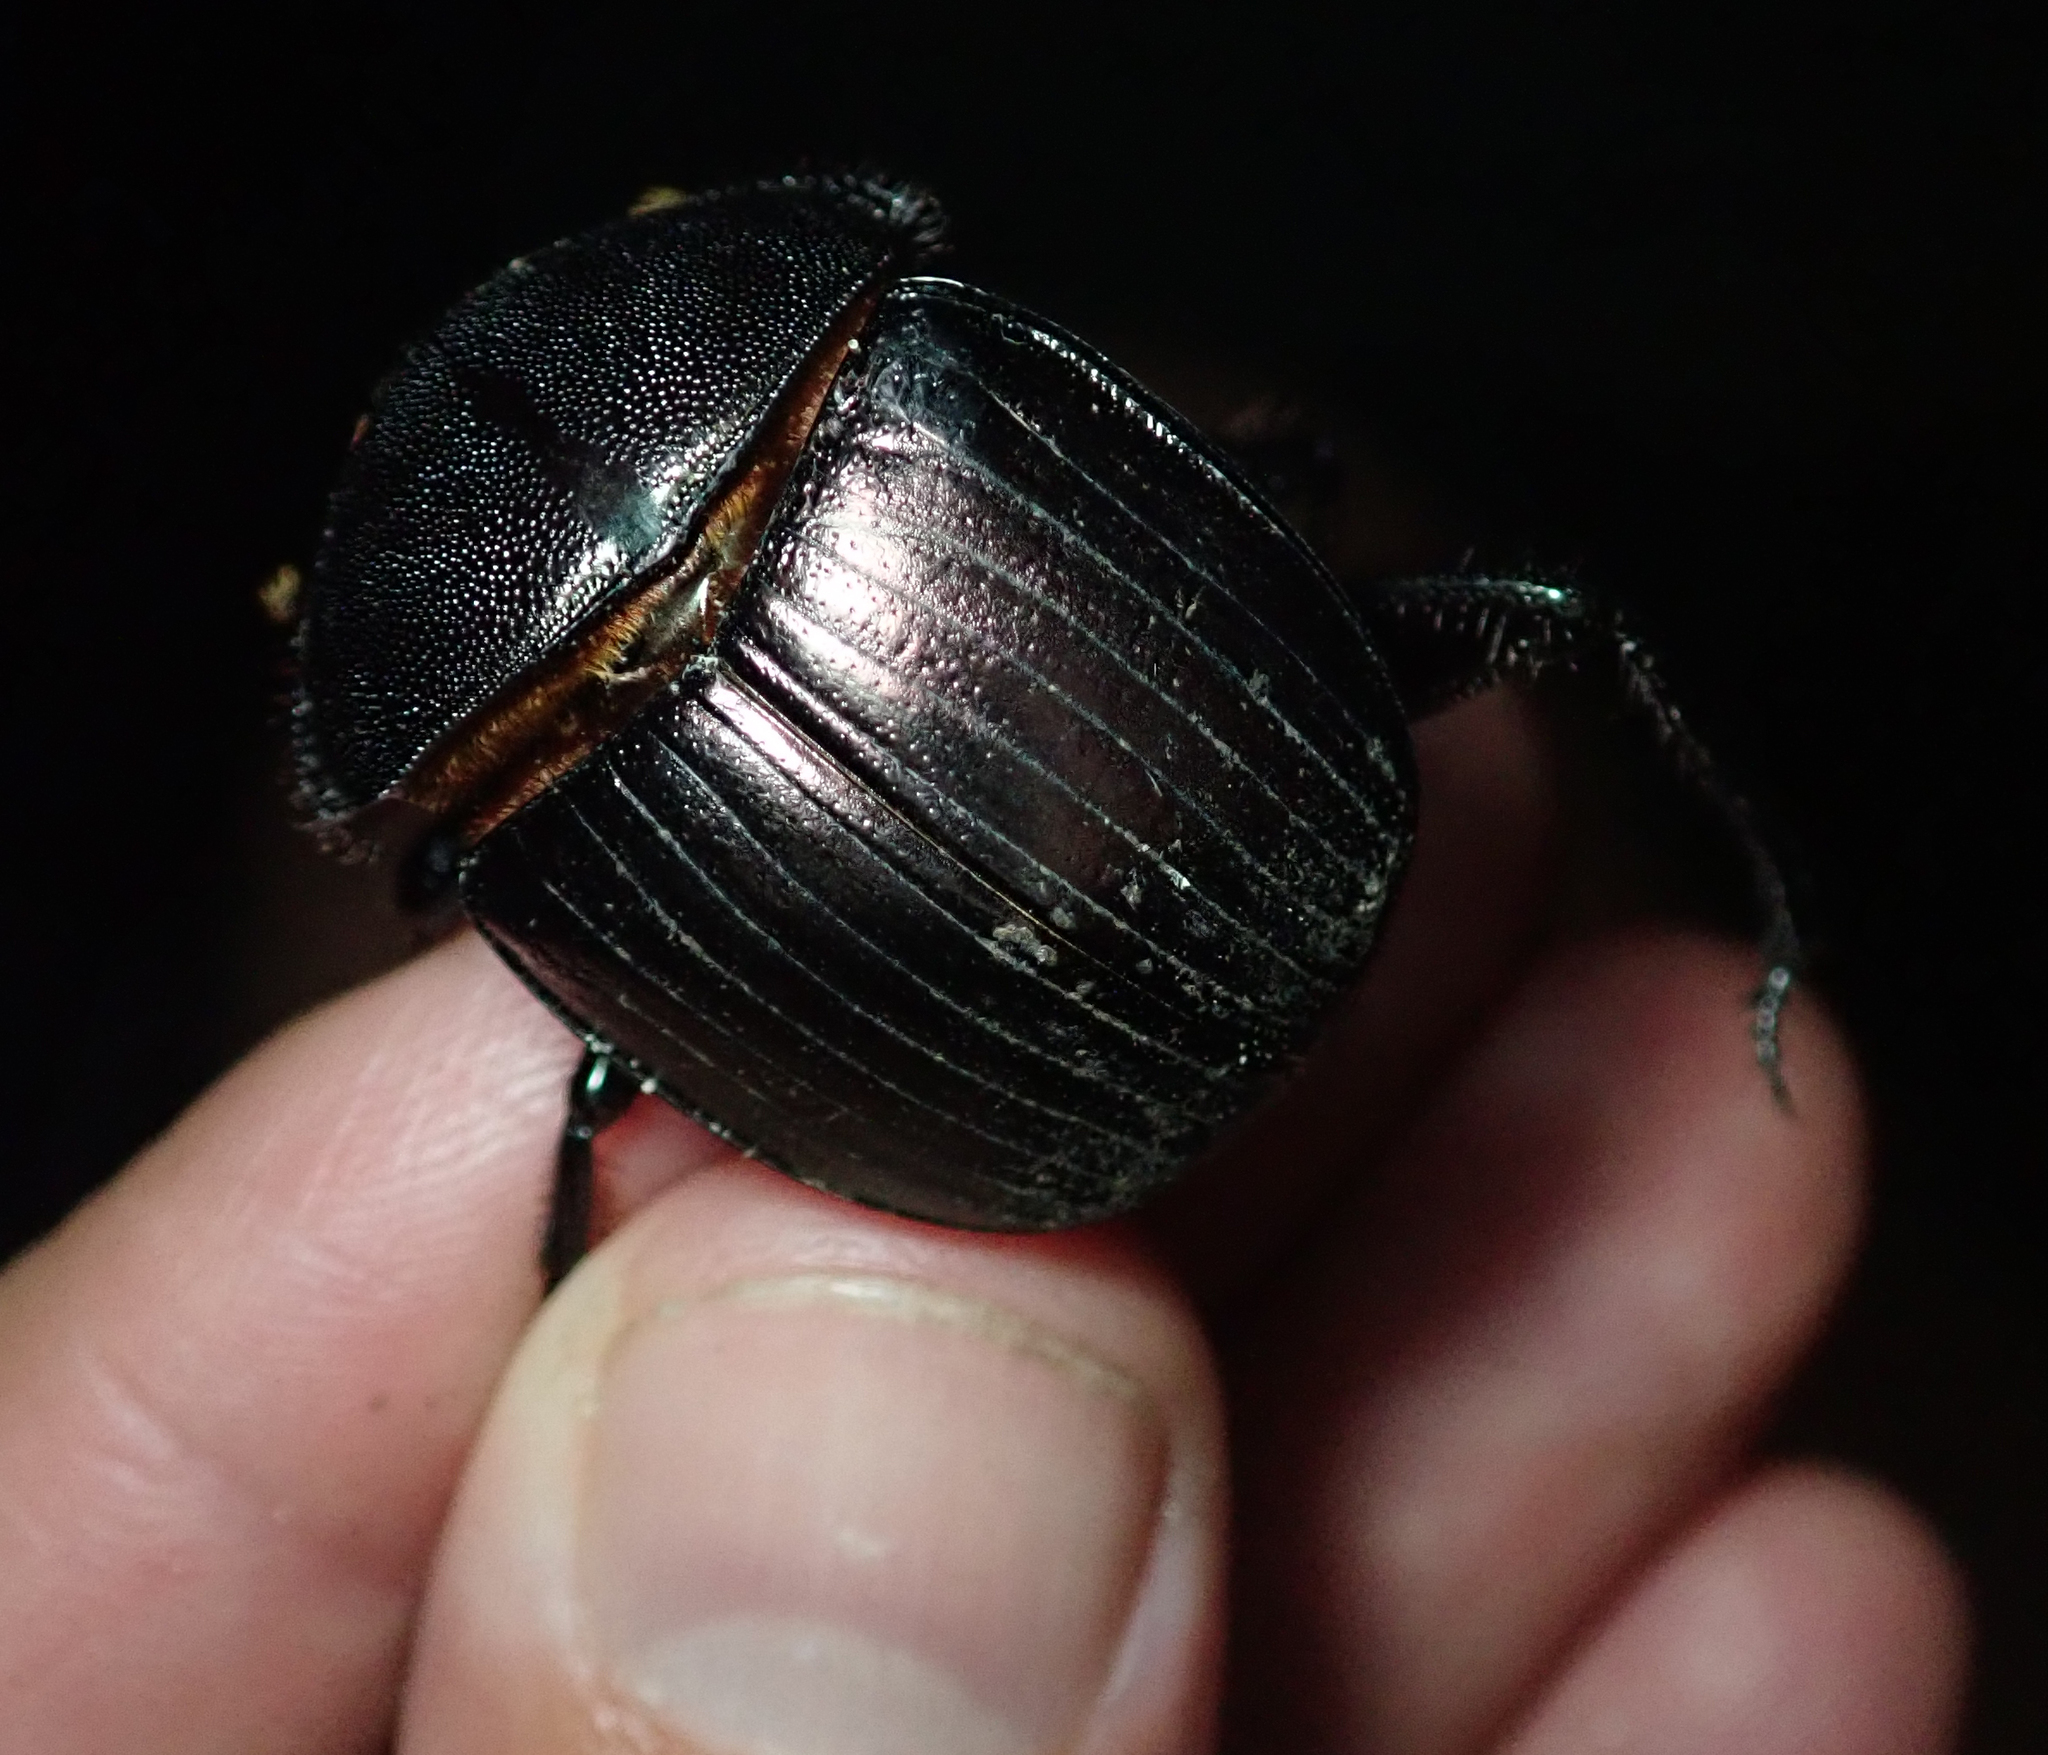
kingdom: Animalia
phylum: Arthropoda
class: Insecta
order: Coleoptera
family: Scarabaeidae
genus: Kheper
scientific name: Kheper cupreus
